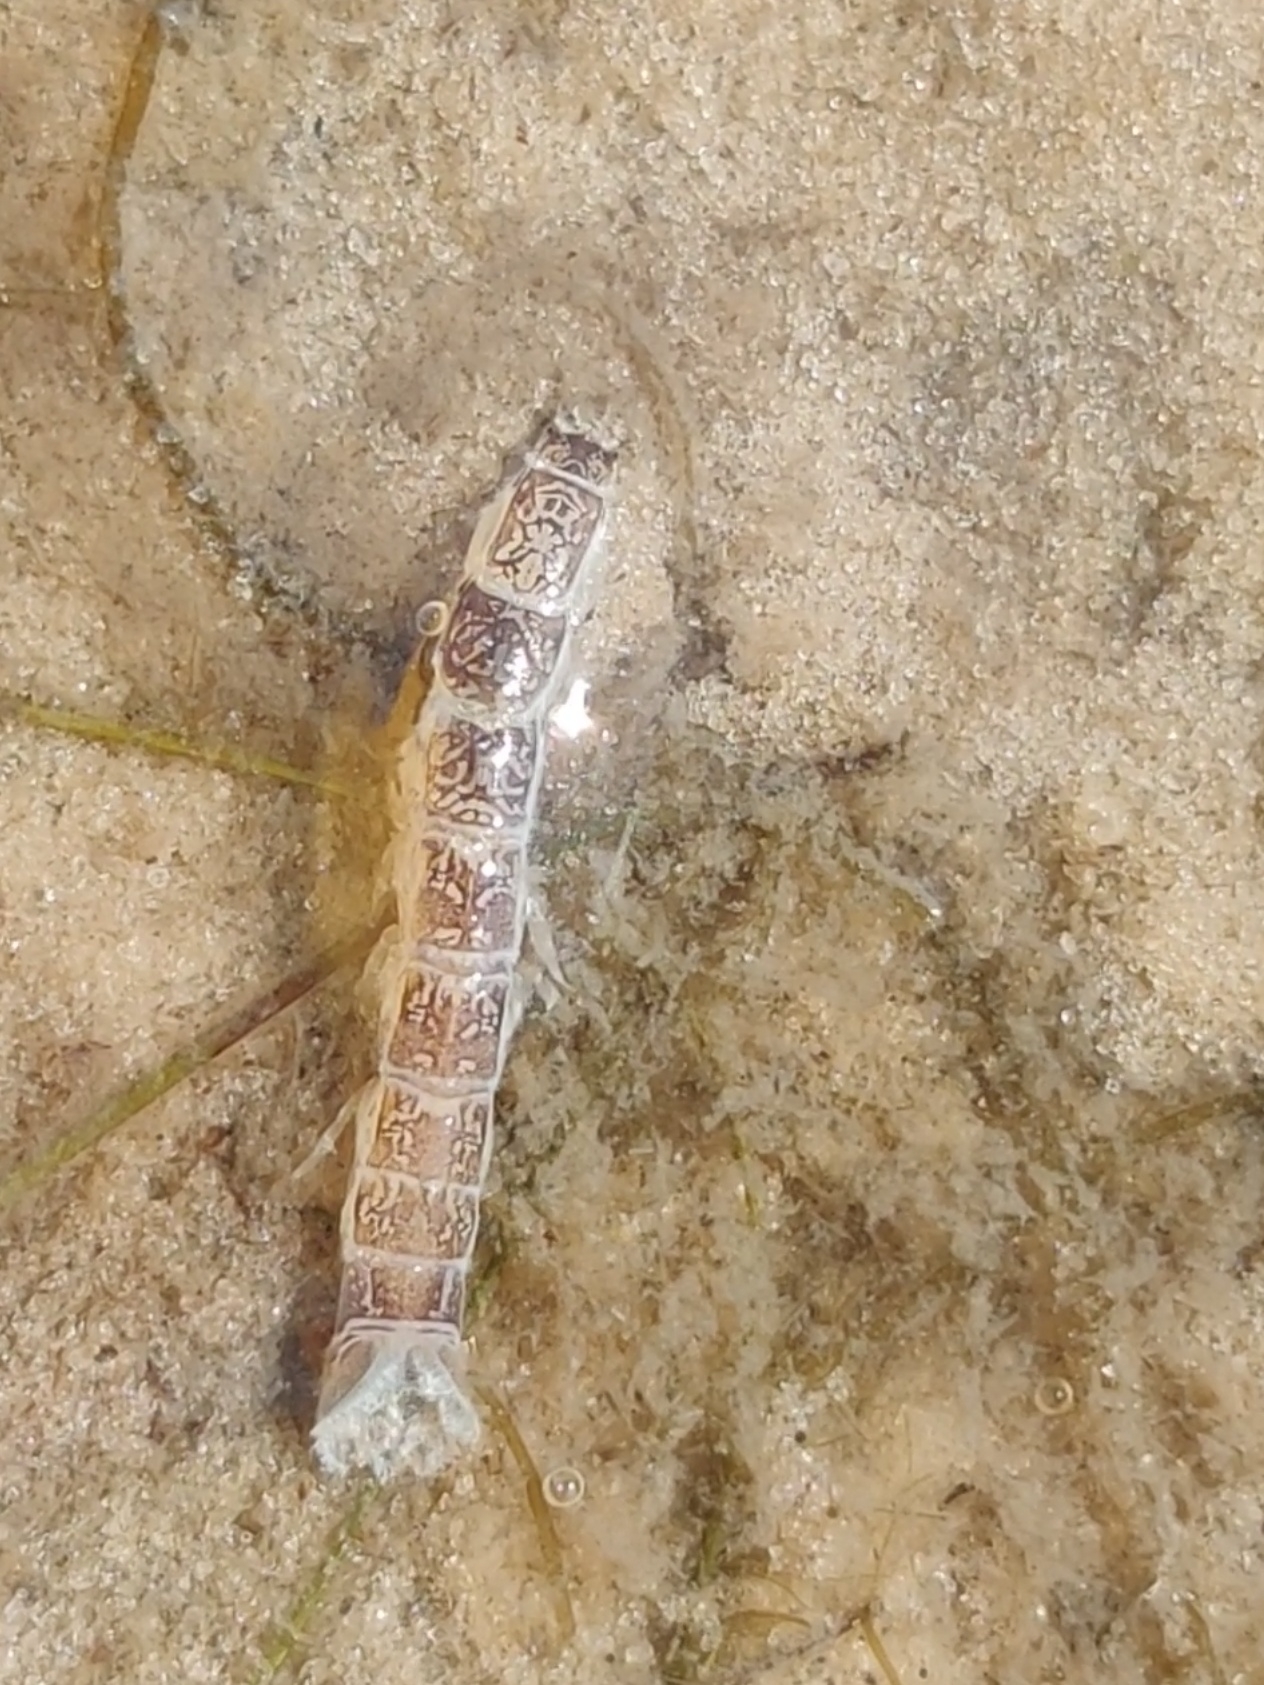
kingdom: Animalia
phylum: Arthropoda
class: Malacostraca
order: Isopoda
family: Anthuridae
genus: Cyathura
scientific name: Cyathura polita
